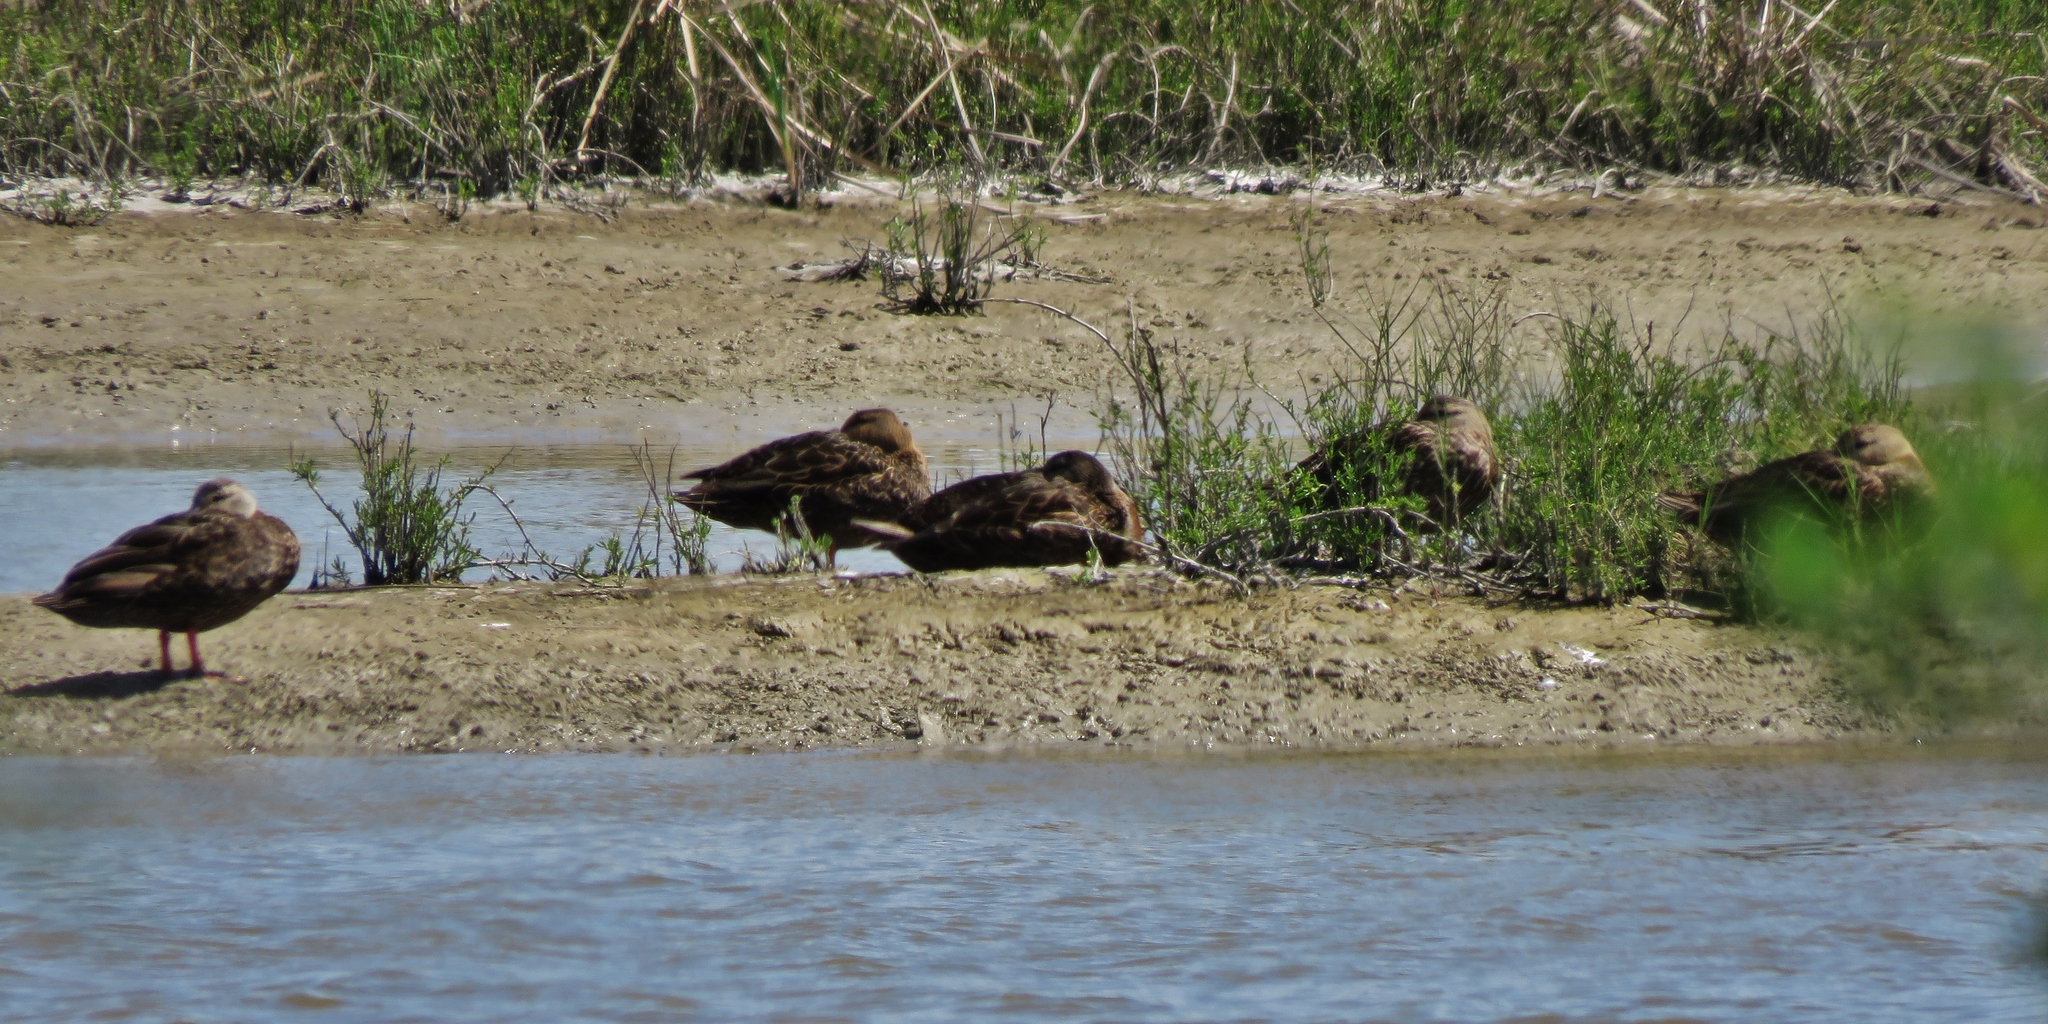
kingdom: Animalia
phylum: Chordata
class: Aves
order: Anseriformes
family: Anatidae
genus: Anas
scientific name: Anas fulvigula
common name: Mottled duck
